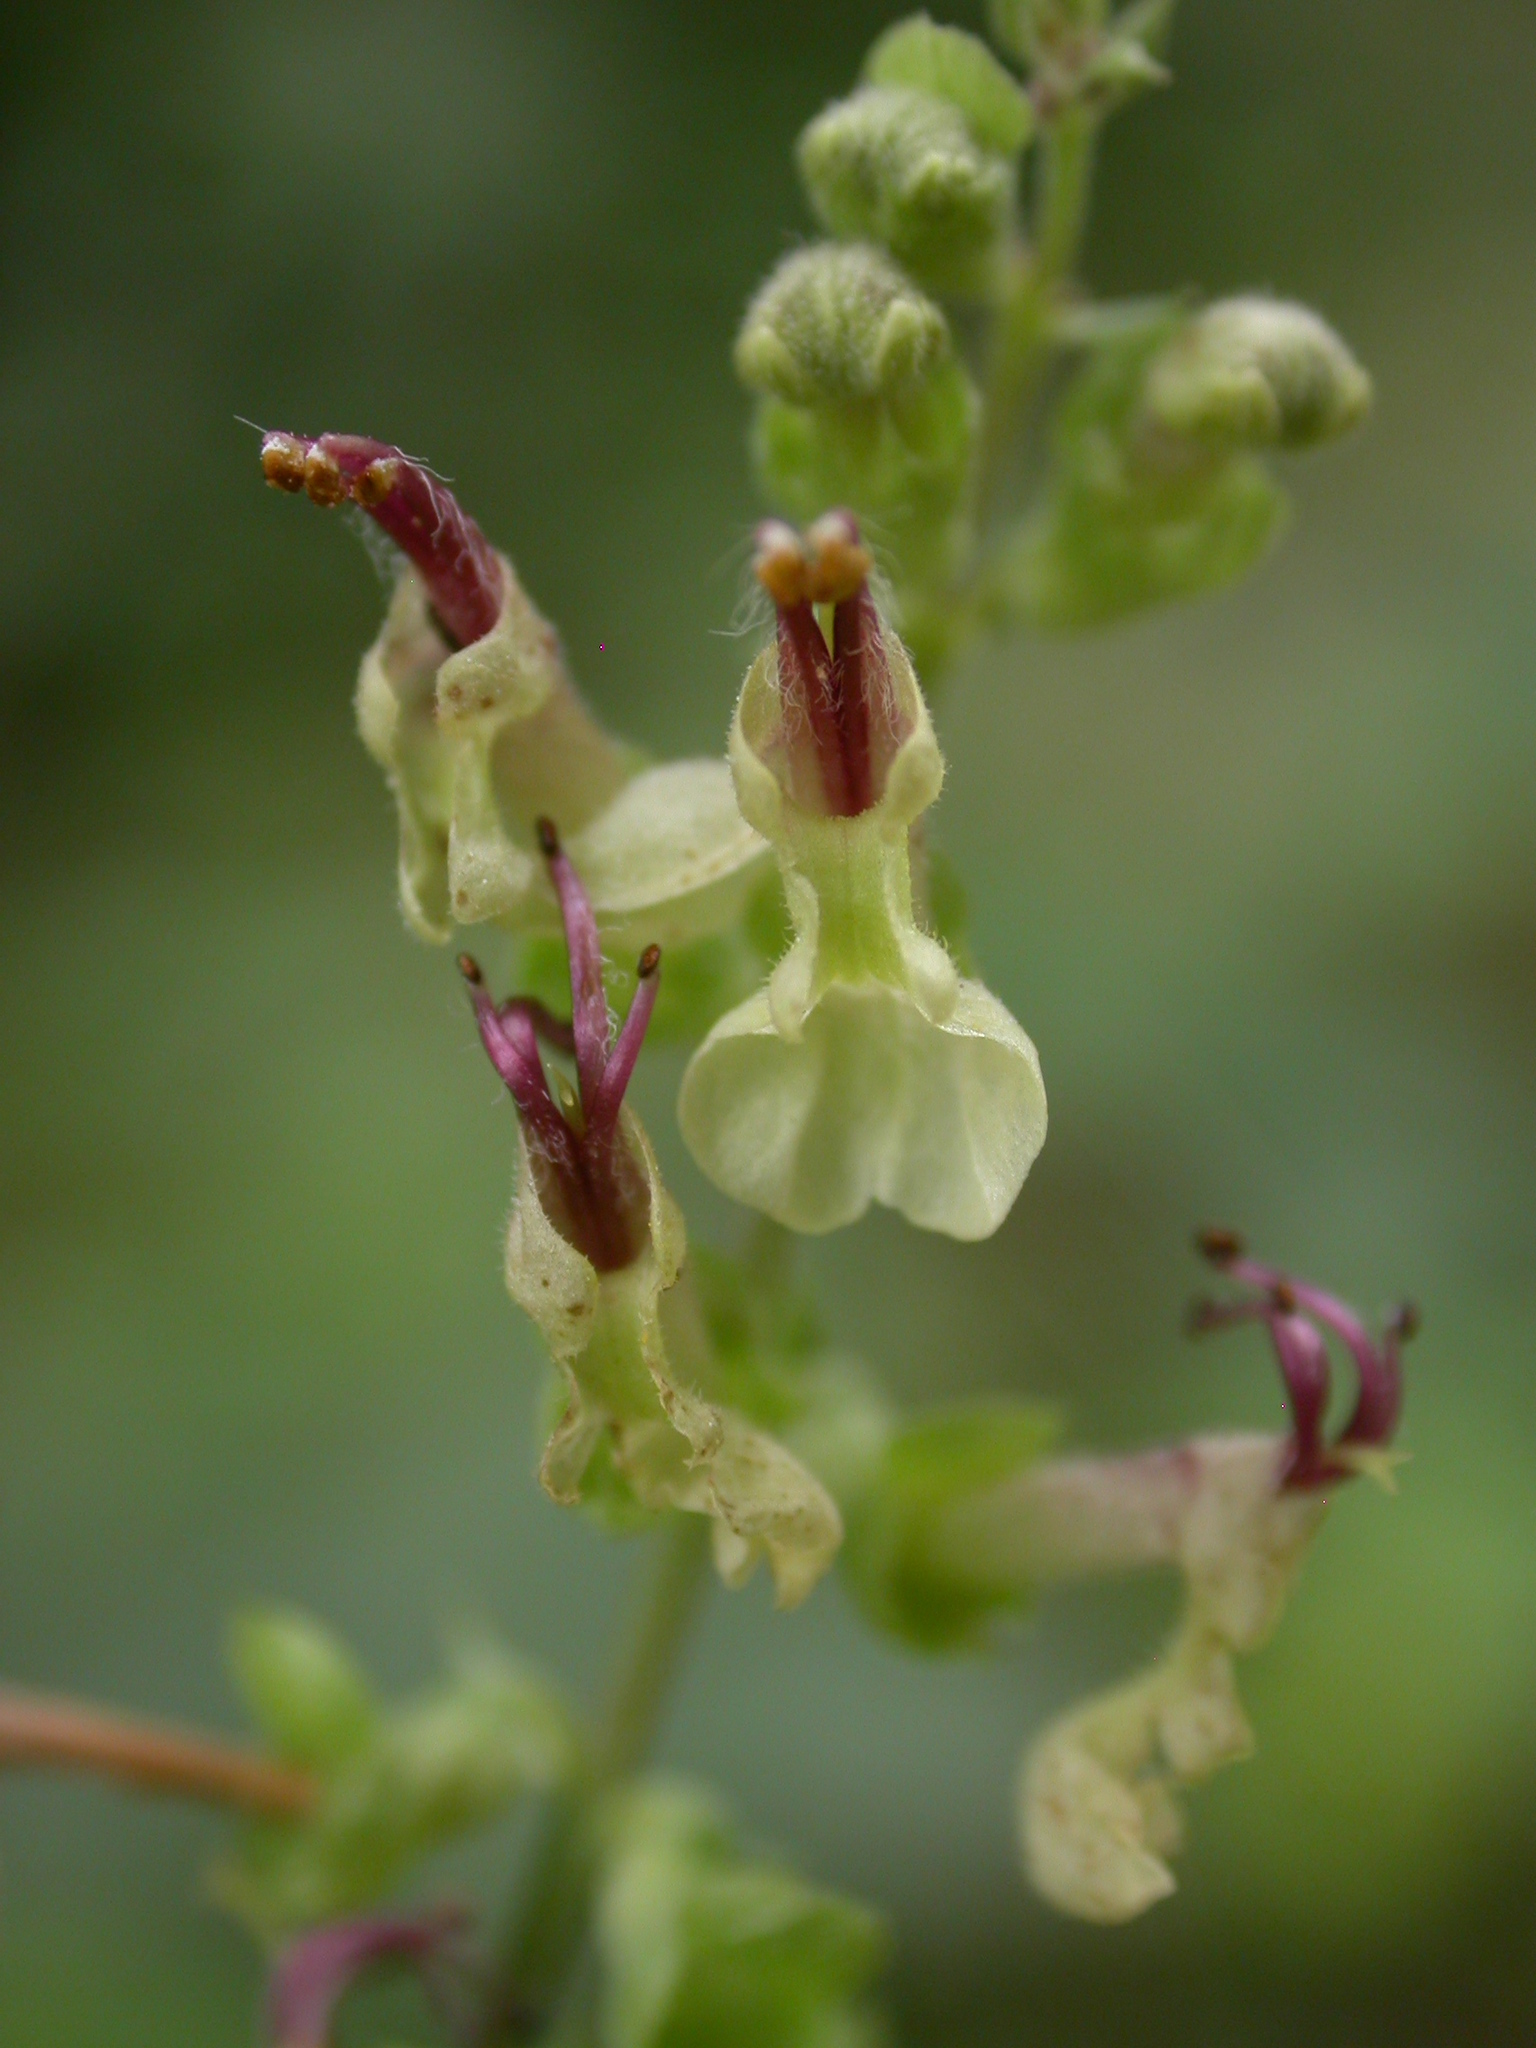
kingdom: Plantae
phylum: Tracheophyta
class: Magnoliopsida
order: Lamiales
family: Lamiaceae
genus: Teucrium
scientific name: Teucrium scorodonia
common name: Woodland germander
